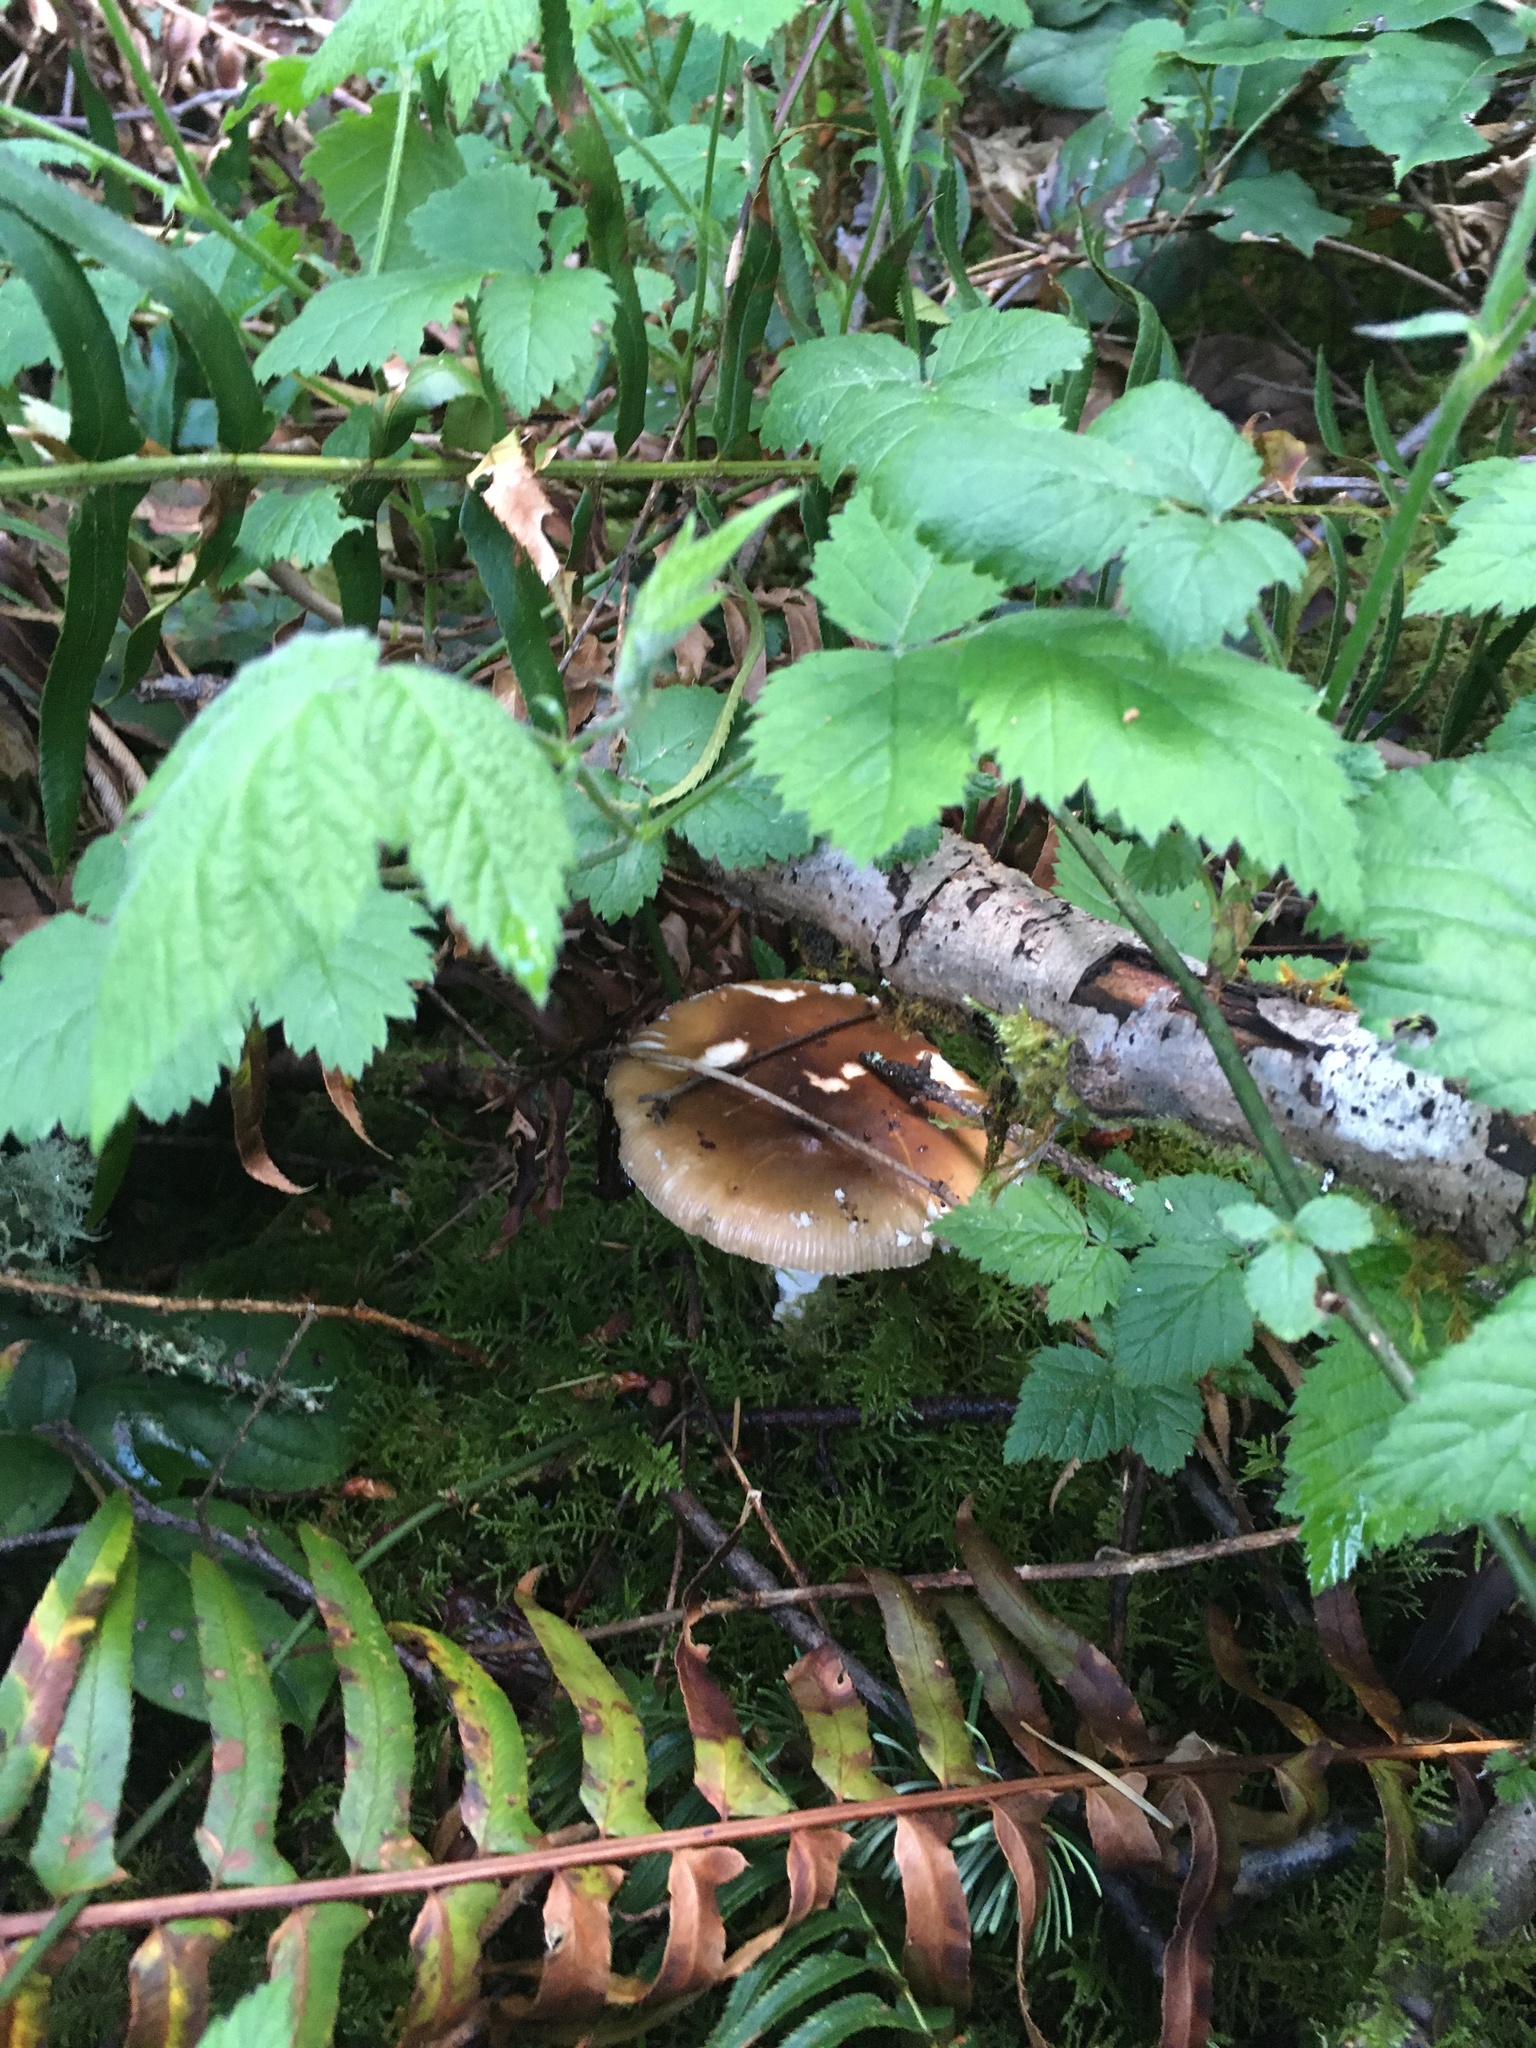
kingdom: Fungi
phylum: Basidiomycota
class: Agaricomycetes
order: Agaricales
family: Amanitaceae
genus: Amanita
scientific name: Amanita pantherinoides
